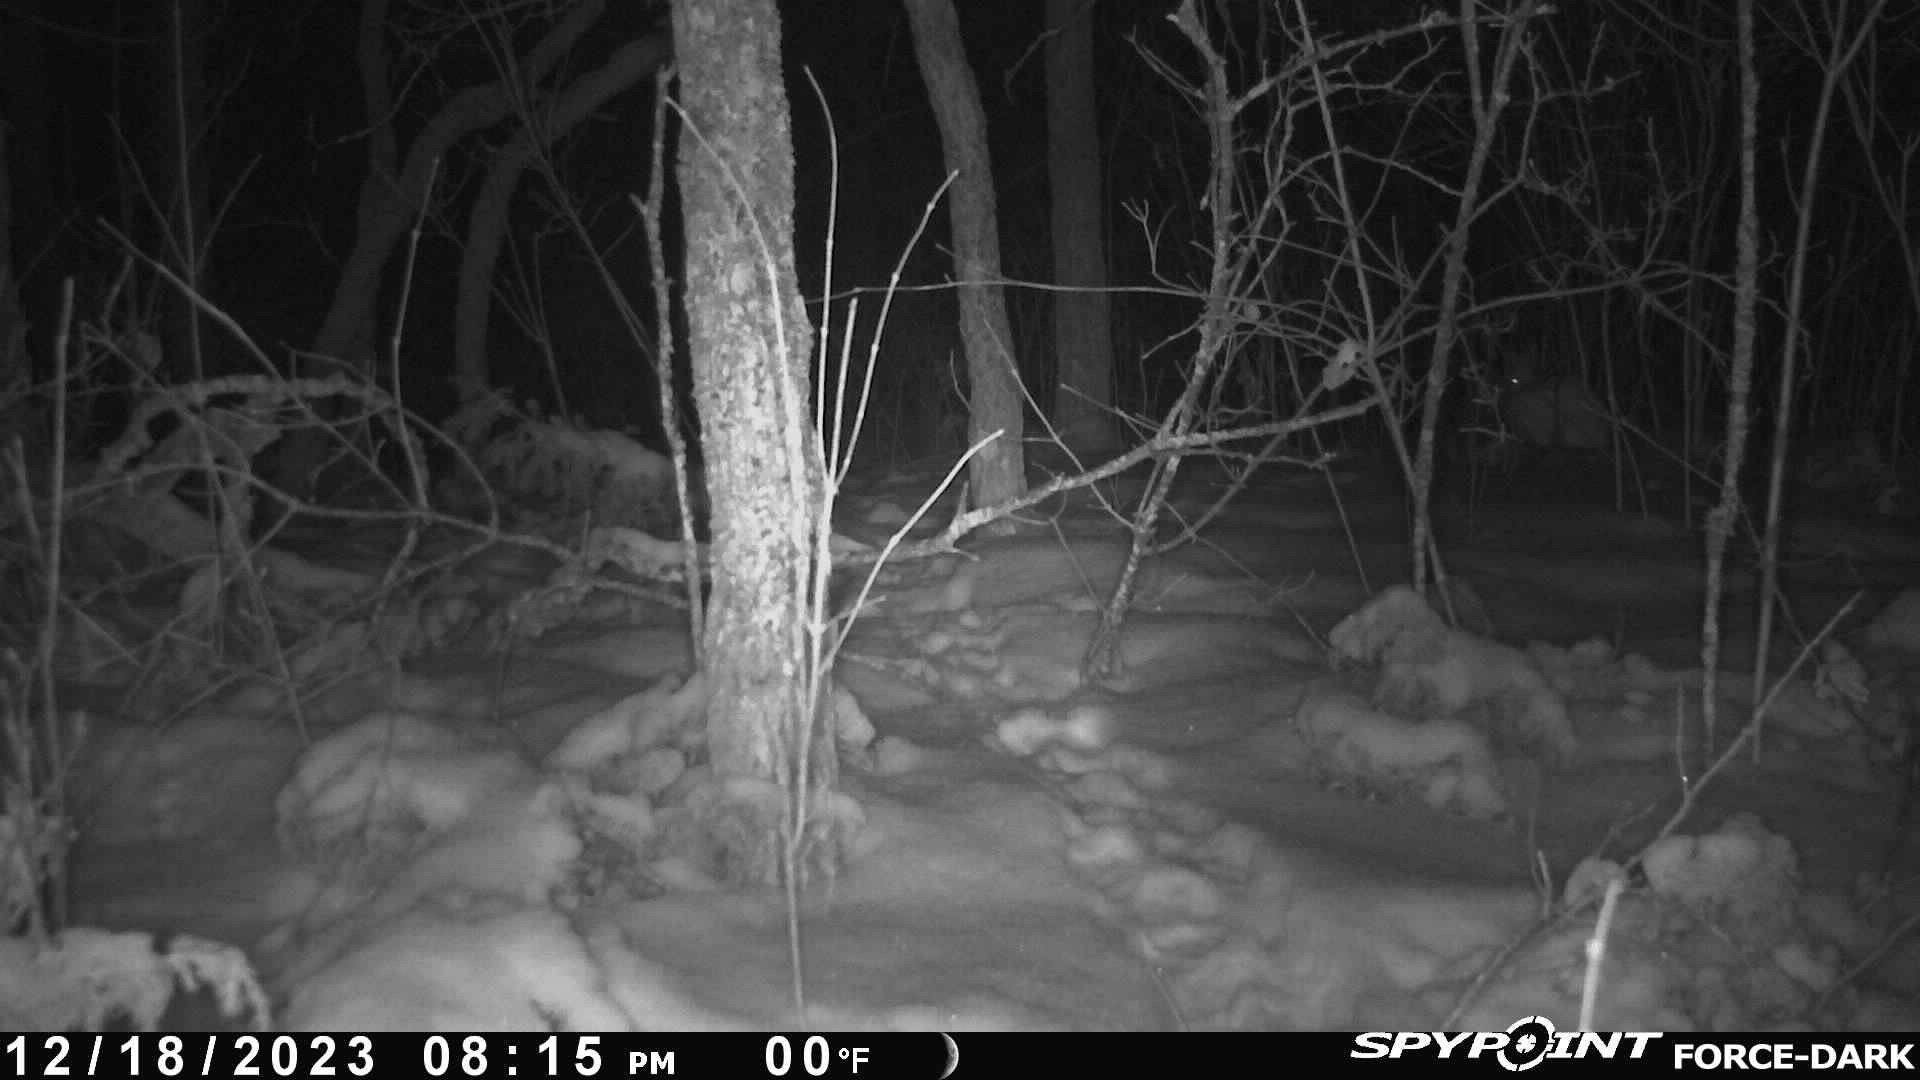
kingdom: Animalia
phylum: Chordata
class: Mammalia
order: Lagomorpha
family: Leporidae
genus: Lepus
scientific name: Lepus americanus
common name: Snowshoe hare
